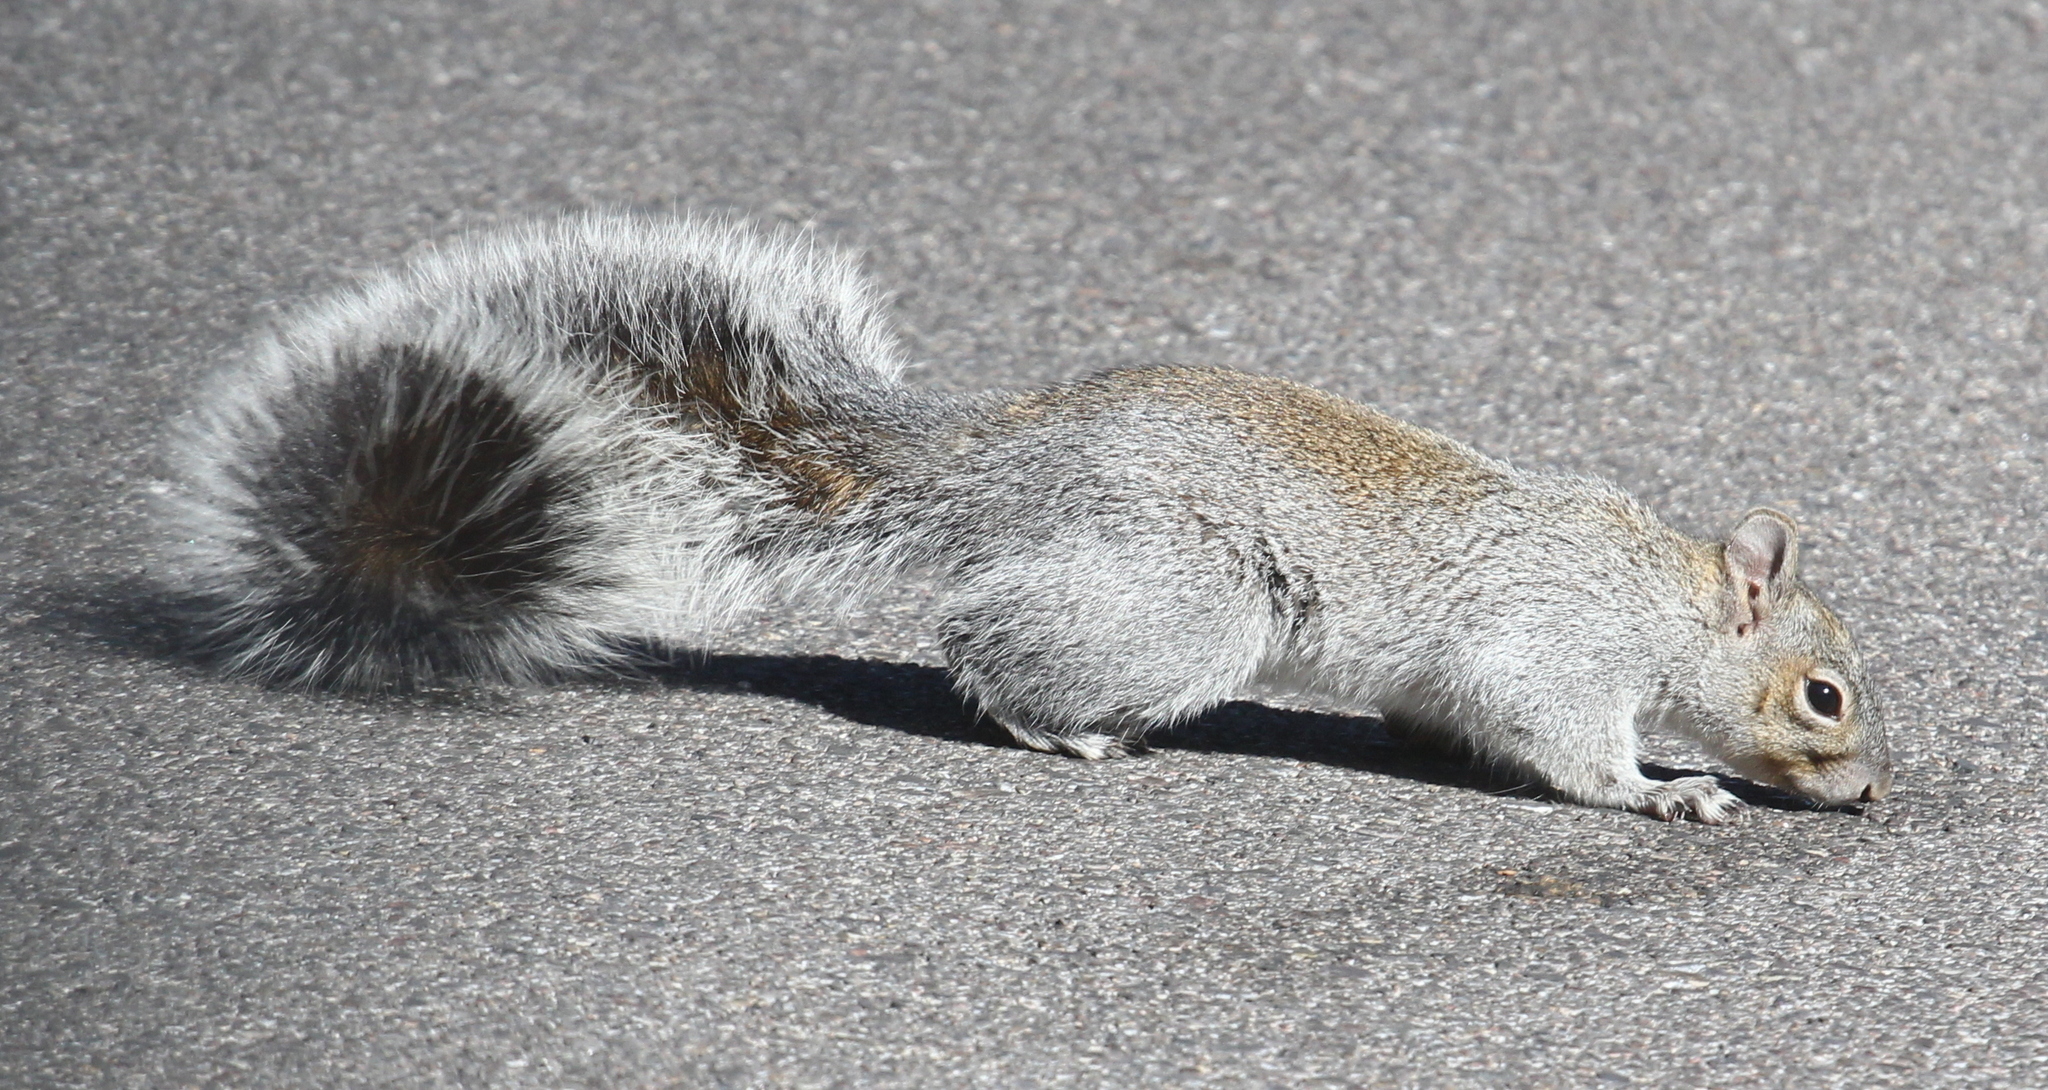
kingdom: Animalia
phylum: Chordata
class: Mammalia
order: Rodentia
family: Sciuridae
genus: Sciurus
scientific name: Sciurus arizonensis
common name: Arizona gray squirrel
